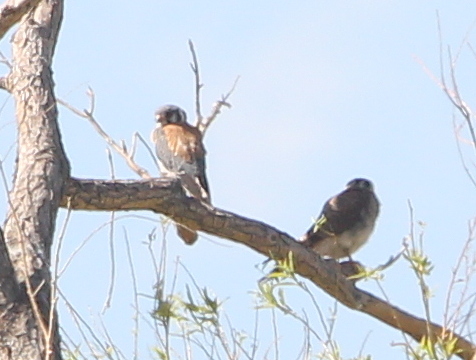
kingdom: Animalia
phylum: Chordata
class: Aves
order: Falconiformes
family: Falconidae
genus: Falco
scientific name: Falco sparverius
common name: American kestrel
